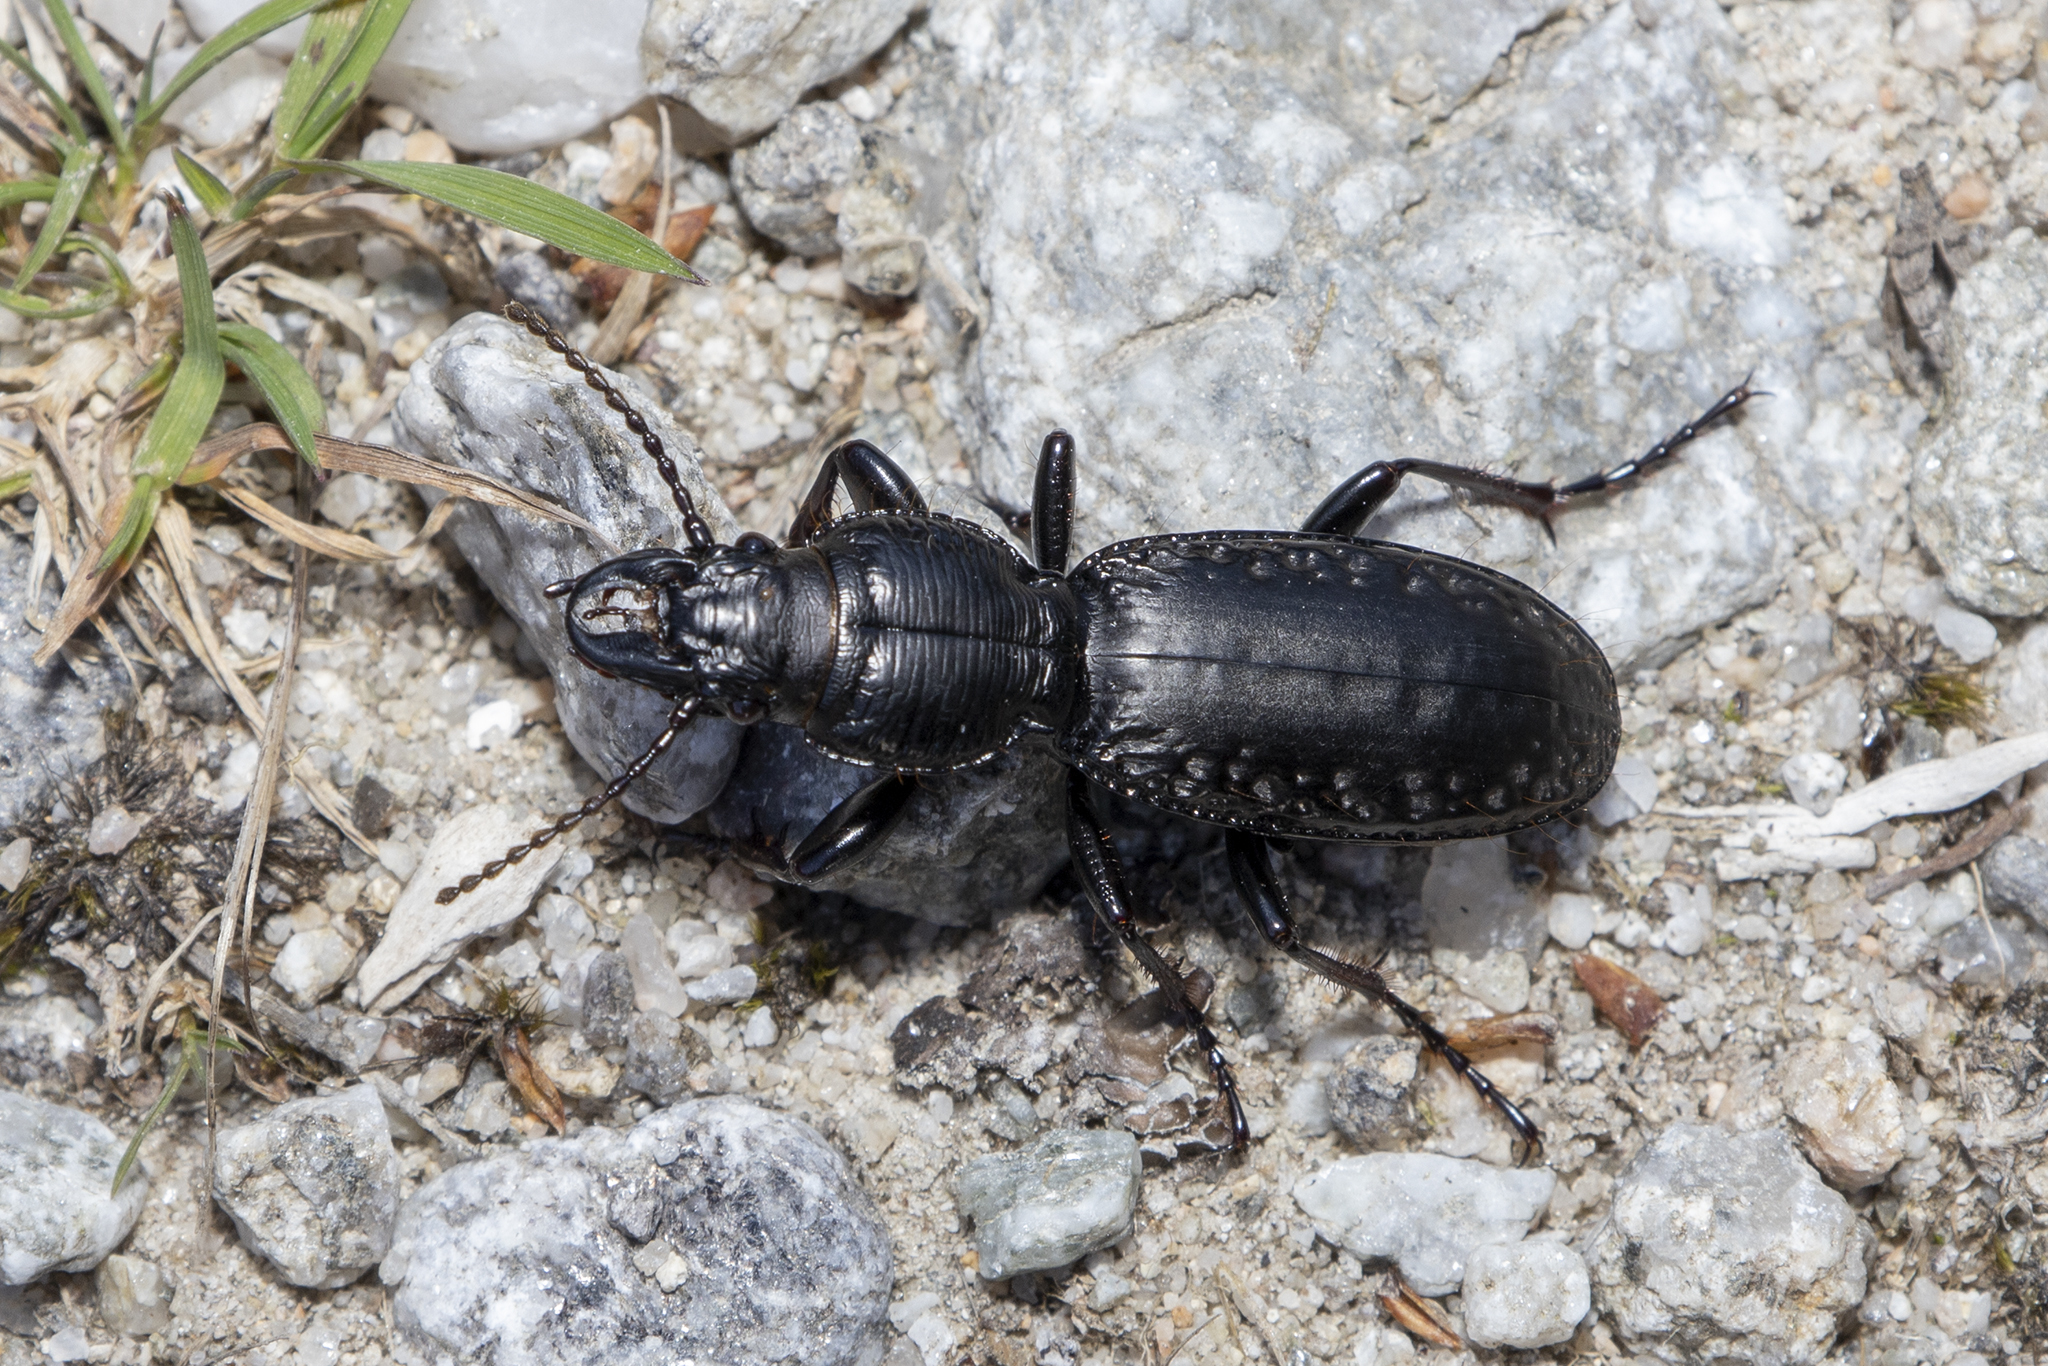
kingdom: Animalia
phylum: Arthropoda
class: Insecta
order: Coleoptera
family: Carabidae
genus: Mecodema
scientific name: Mecodema ducale
